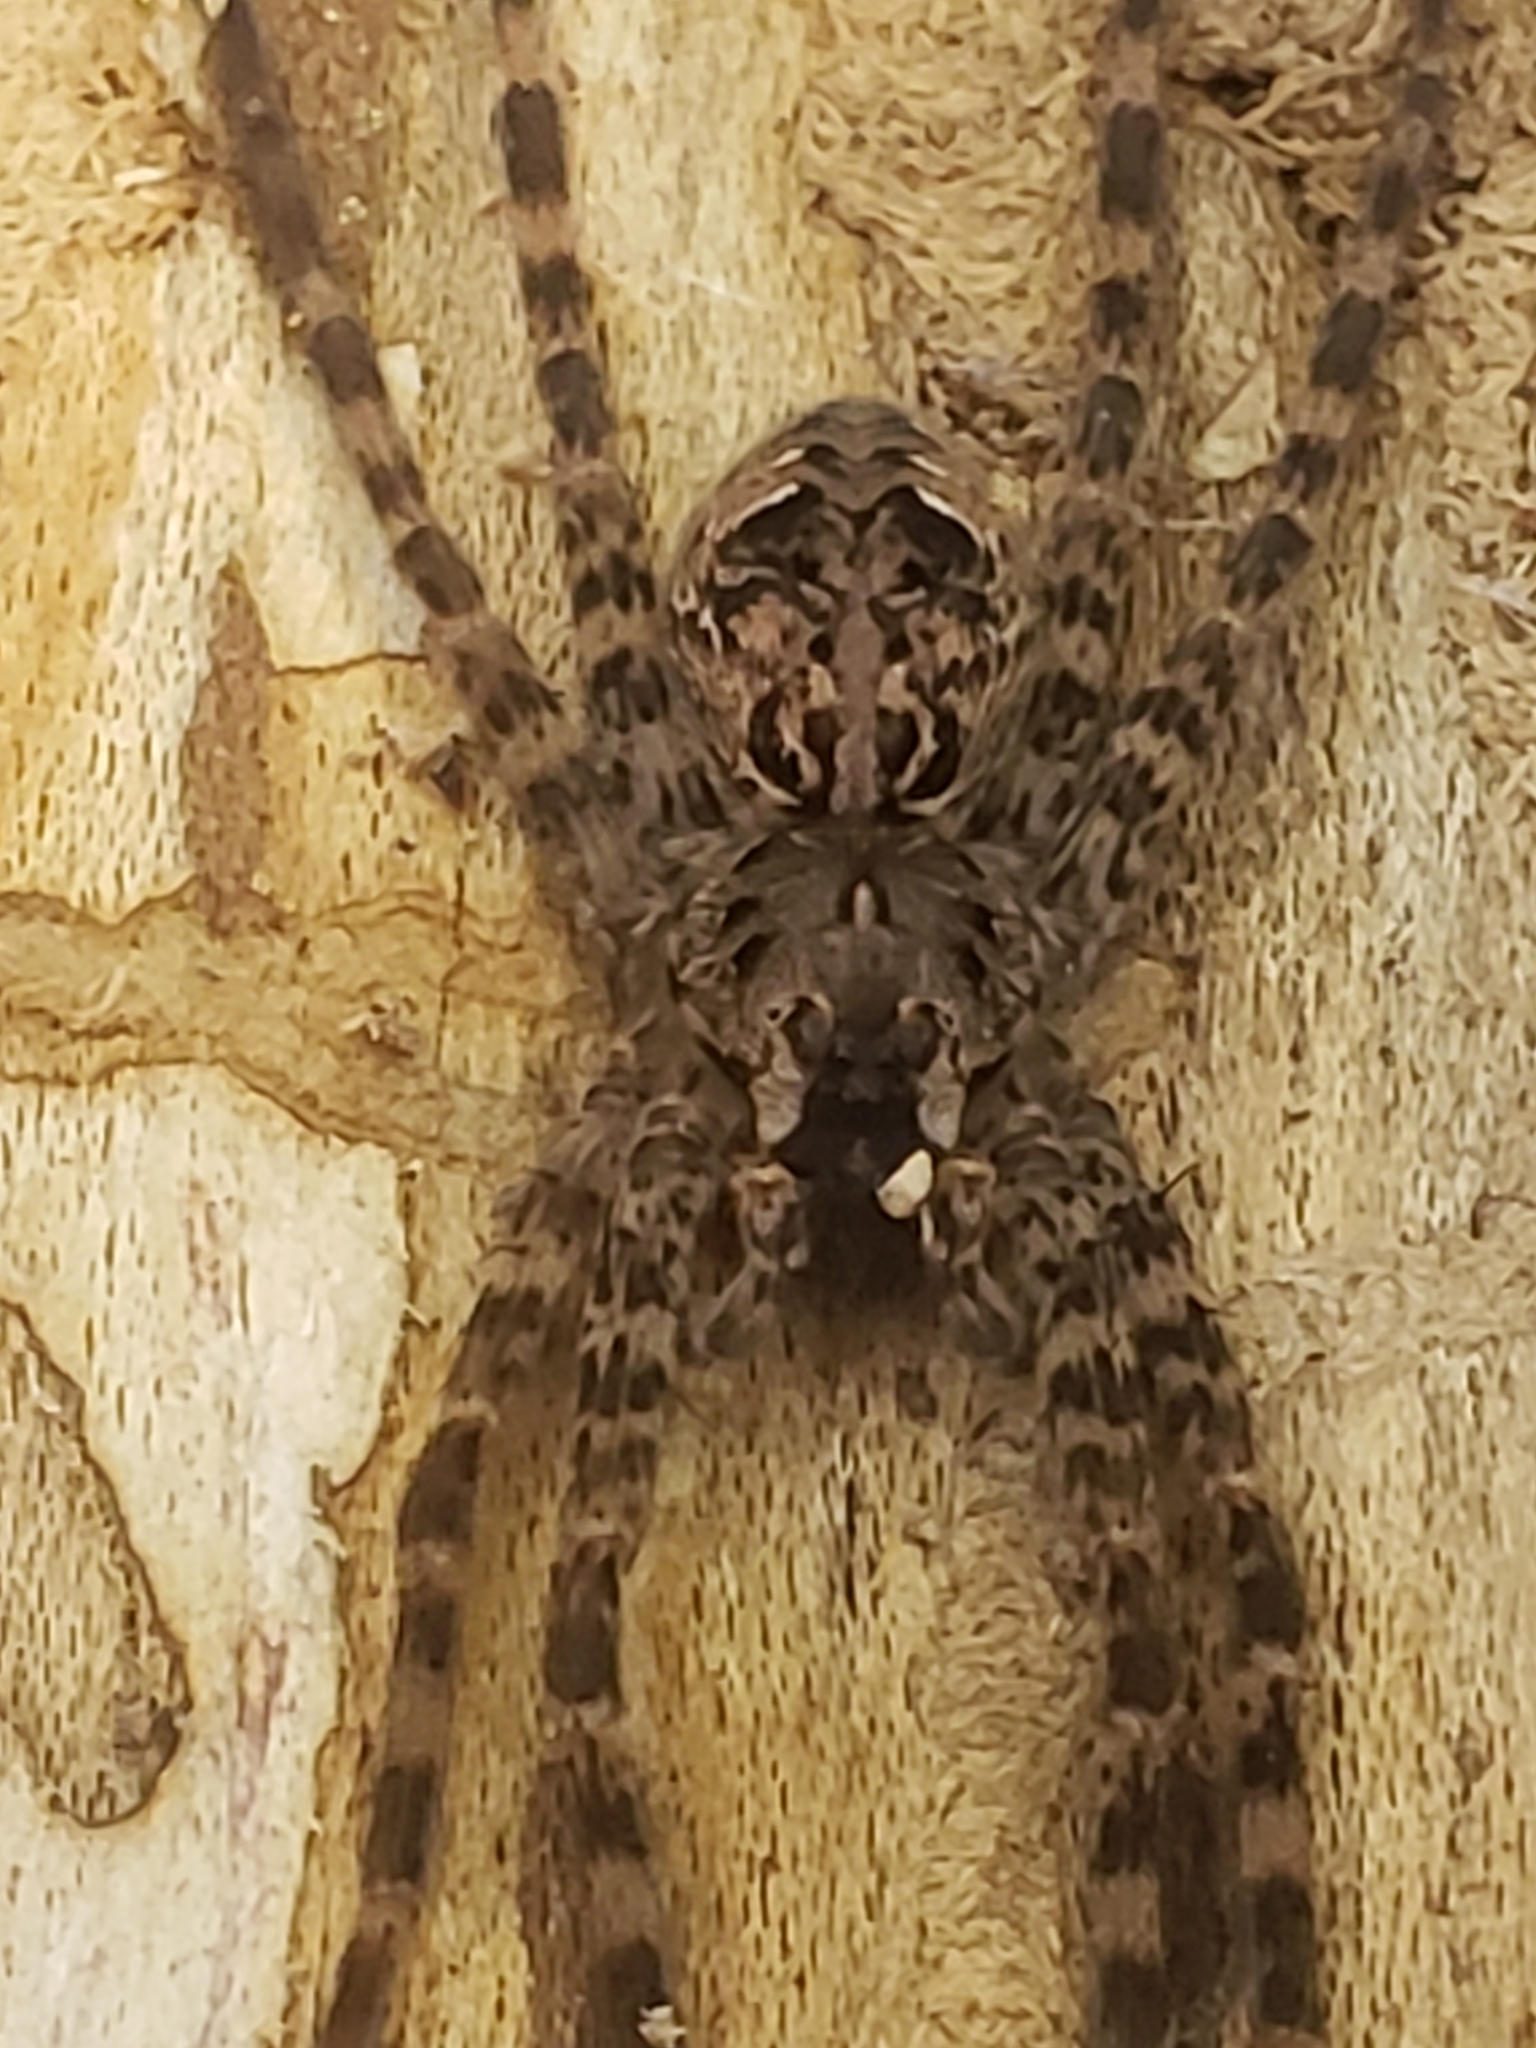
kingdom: Animalia
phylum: Arthropoda
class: Arachnida
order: Araneae
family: Pisauridae
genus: Dolomedes
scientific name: Dolomedes tenebrosus
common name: Dark fishing spider
